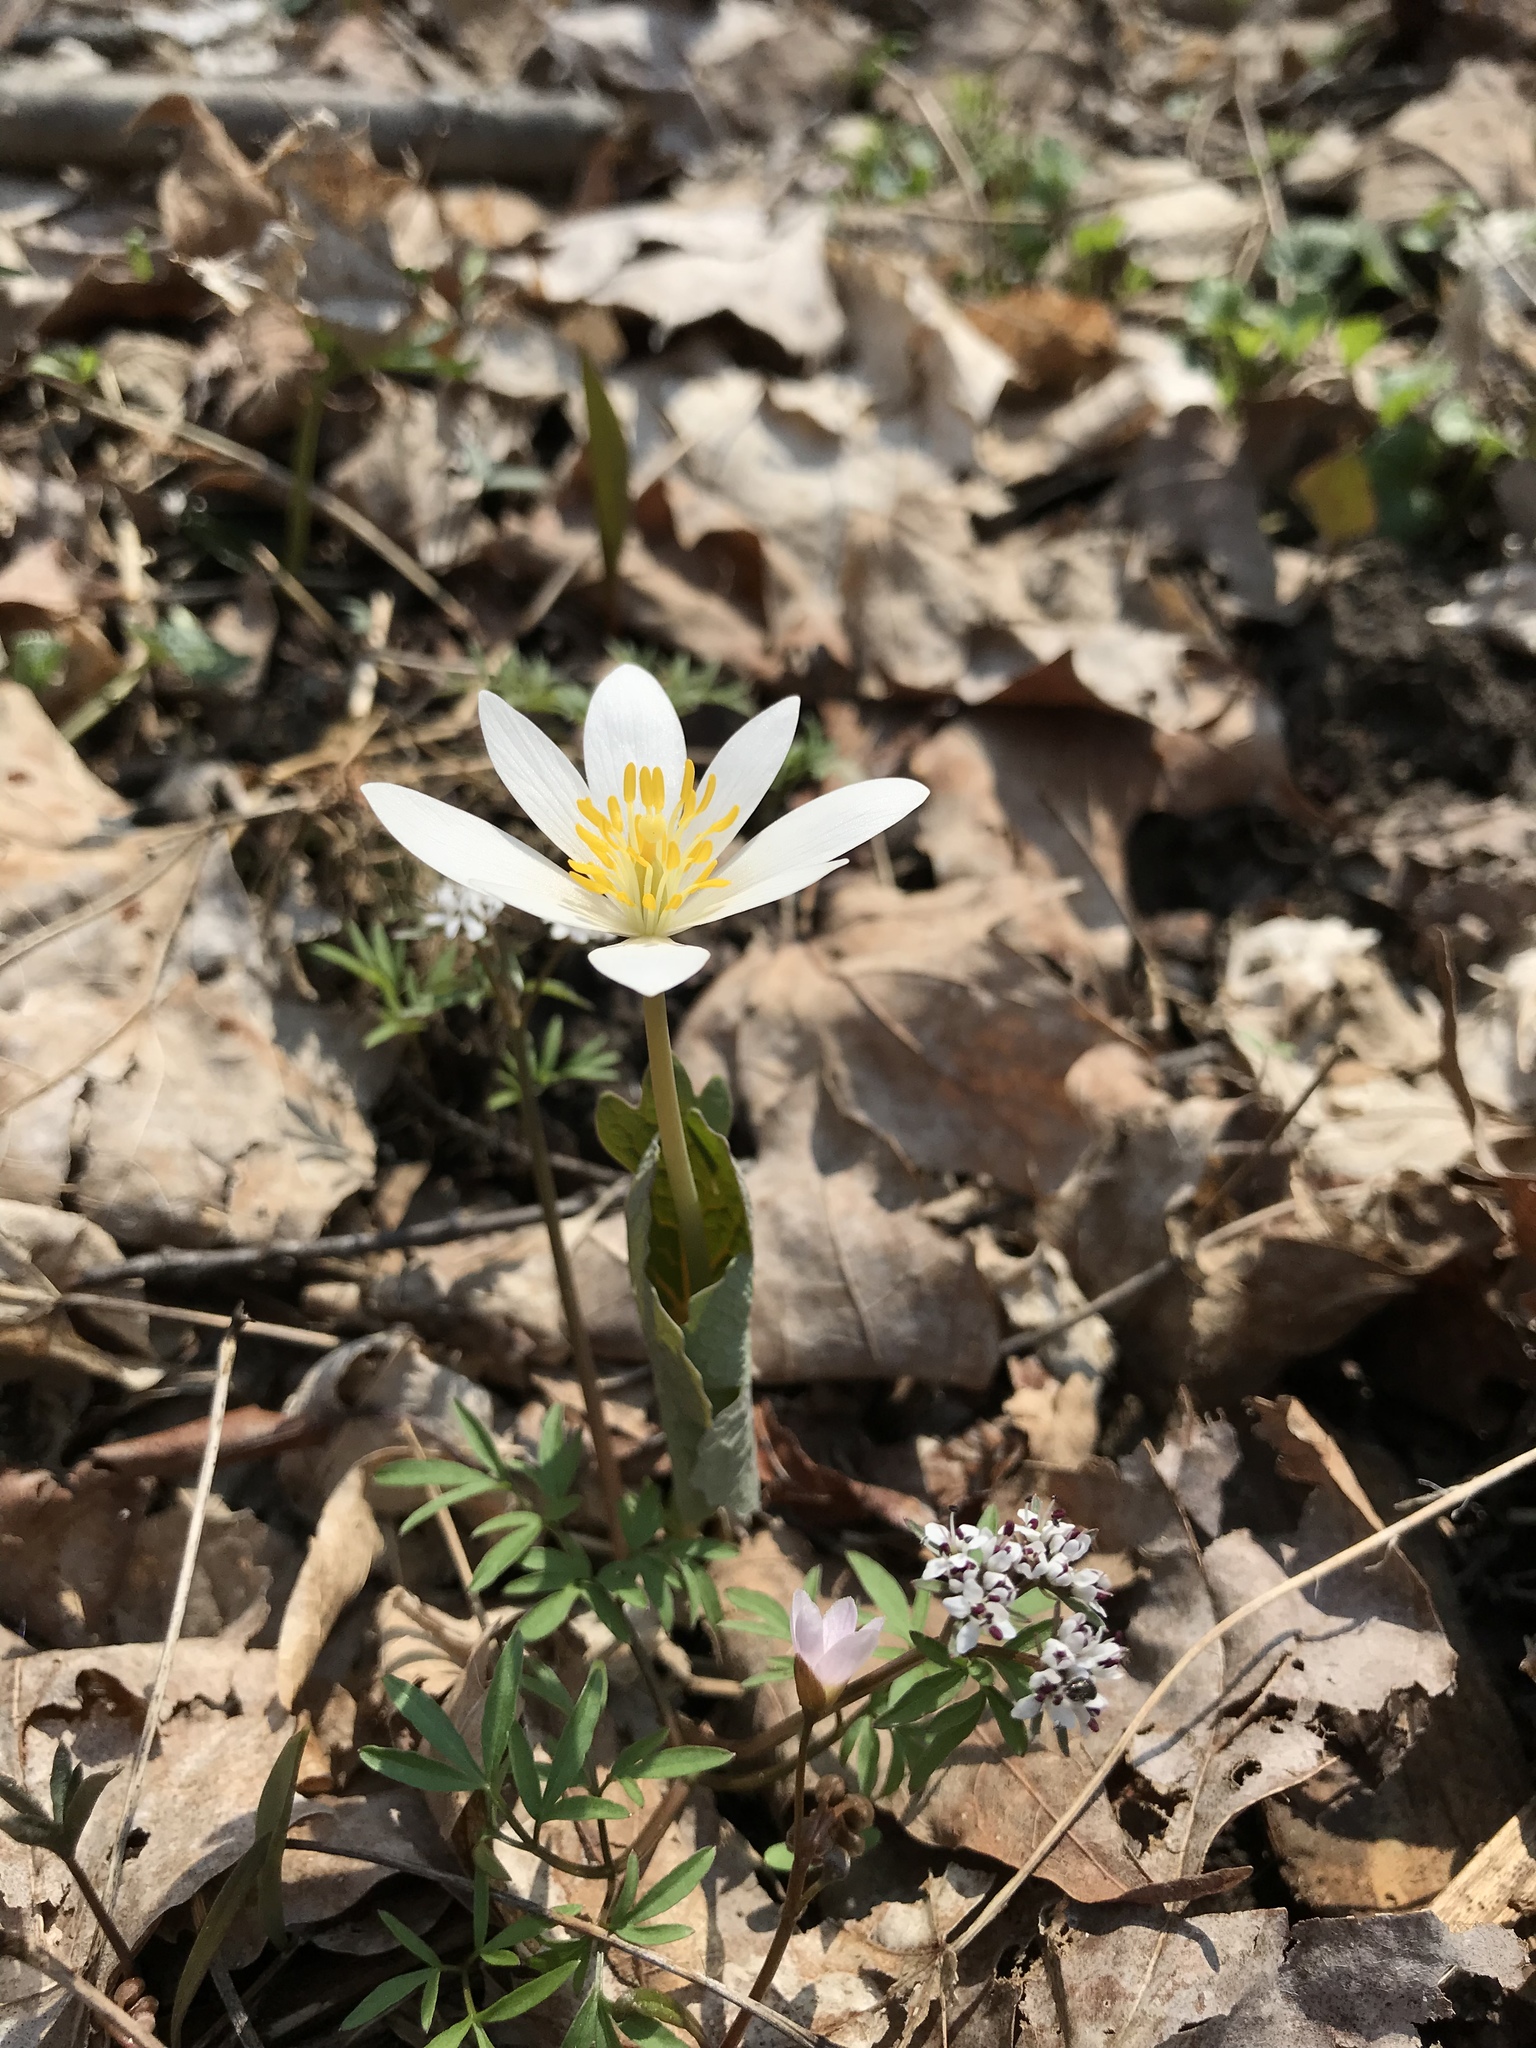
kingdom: Plantae
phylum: Tracheophyta
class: Magnoliopsida
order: Ranunculales
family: Papaveraceae
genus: Sanguinaria
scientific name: Sanguinaria canadensis
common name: Bloodroot
